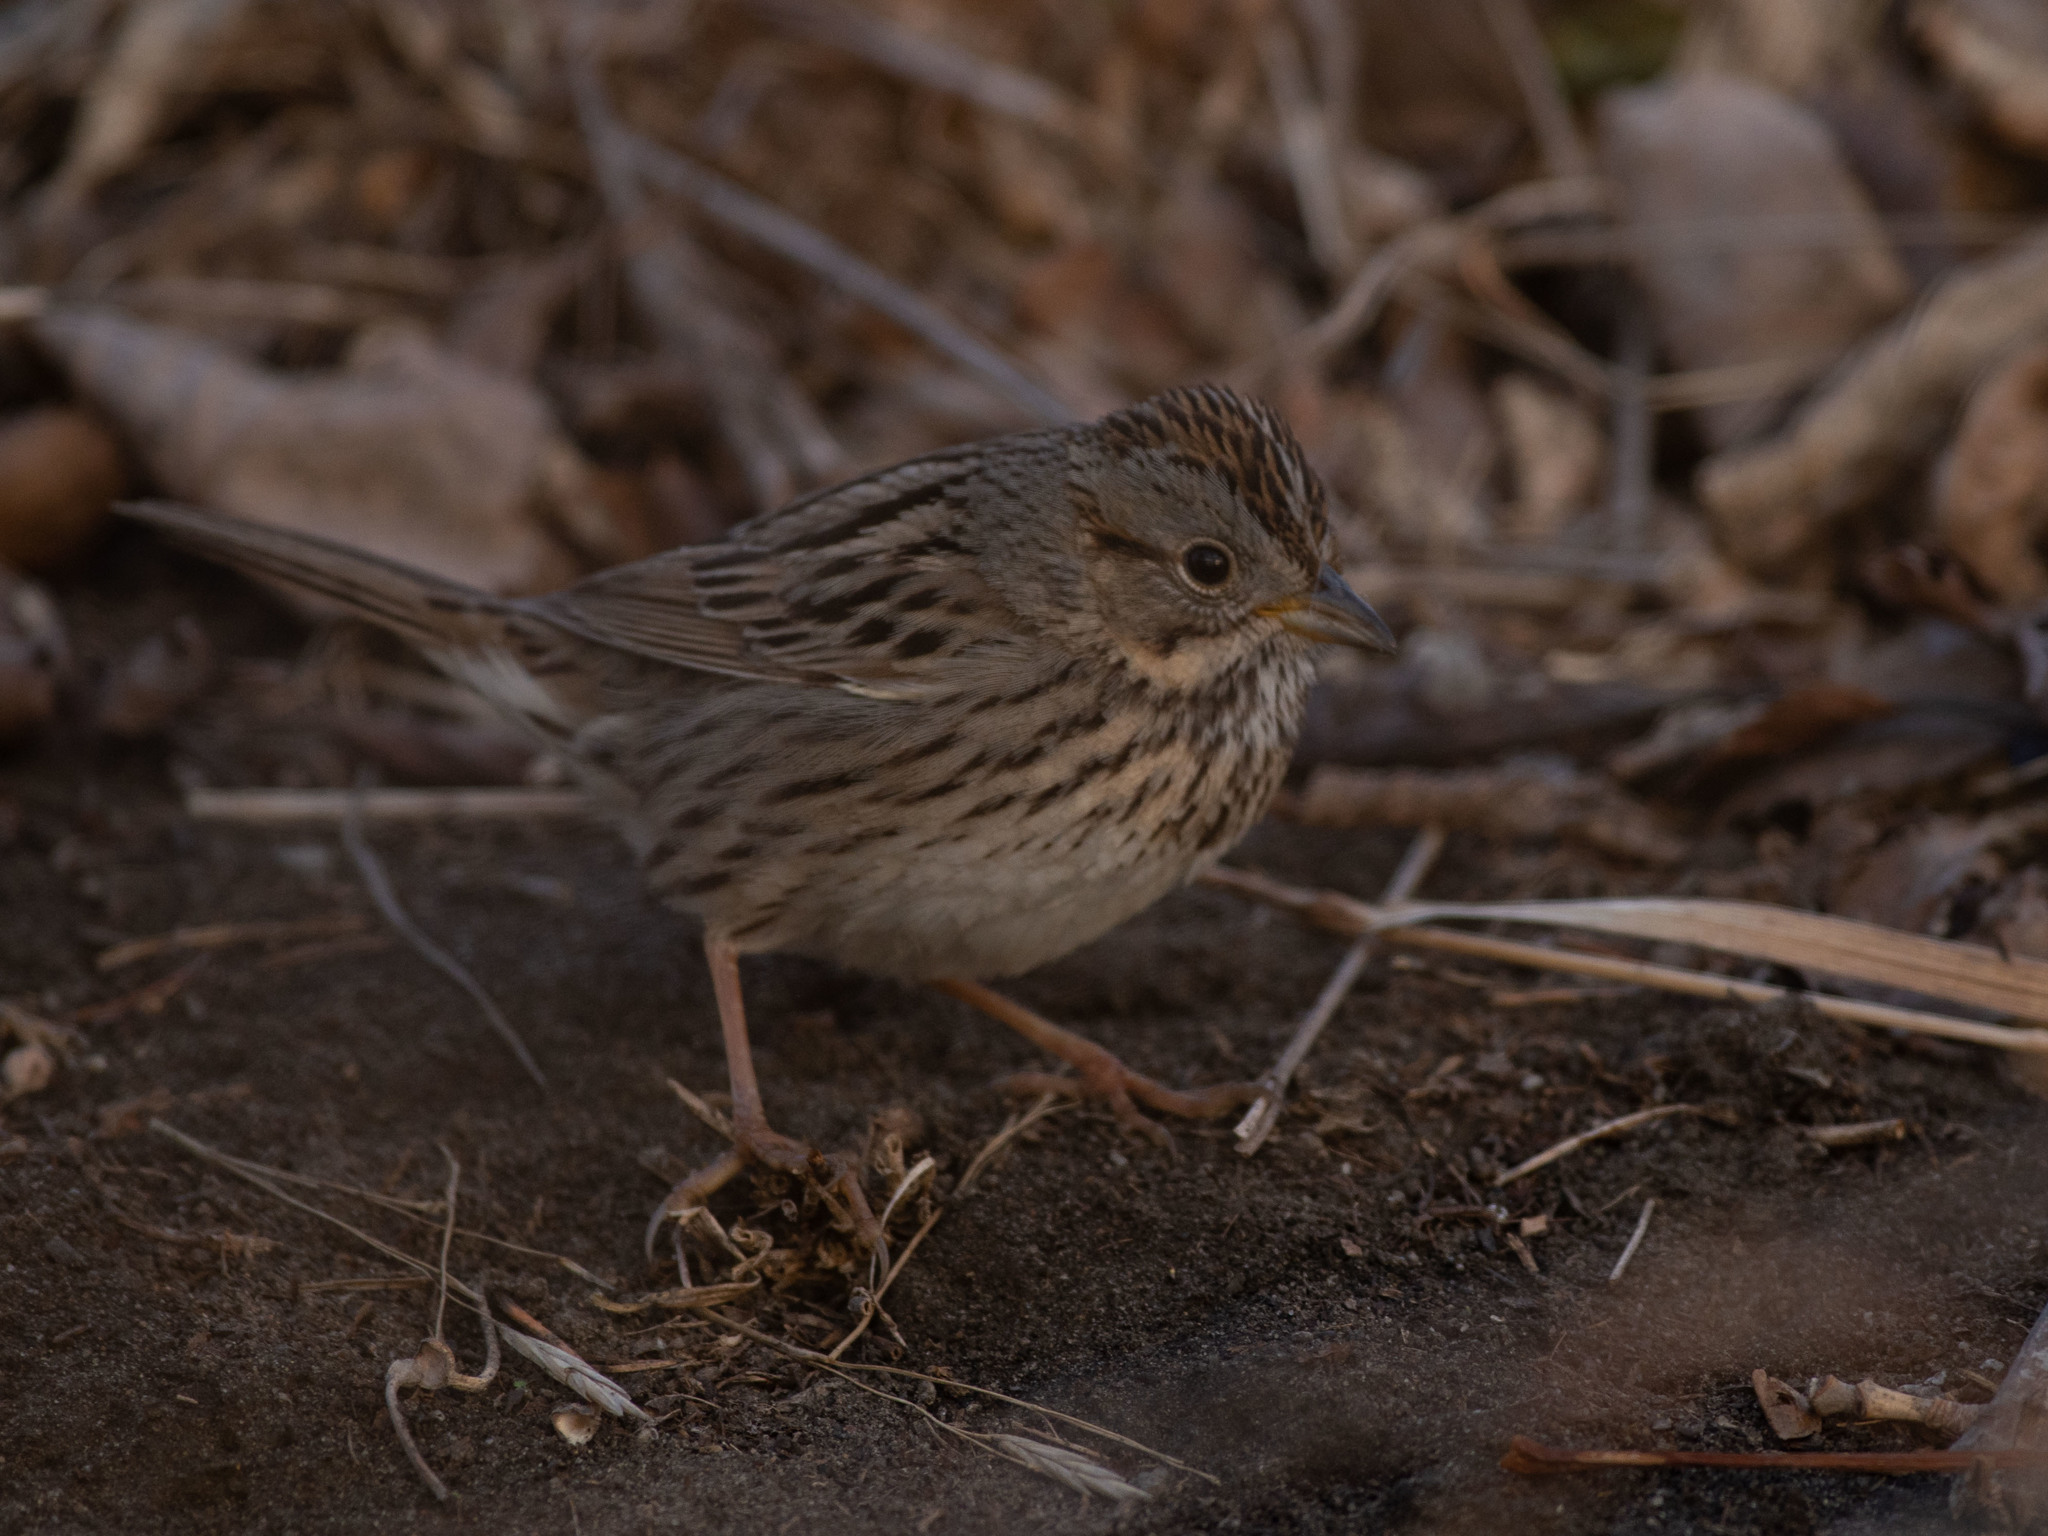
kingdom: Animalia
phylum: Chordata
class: Aves
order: Passeriformes
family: Passerellidae
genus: Melospiza
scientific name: Melospiza lincolnii
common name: Lincoln's sparrow
